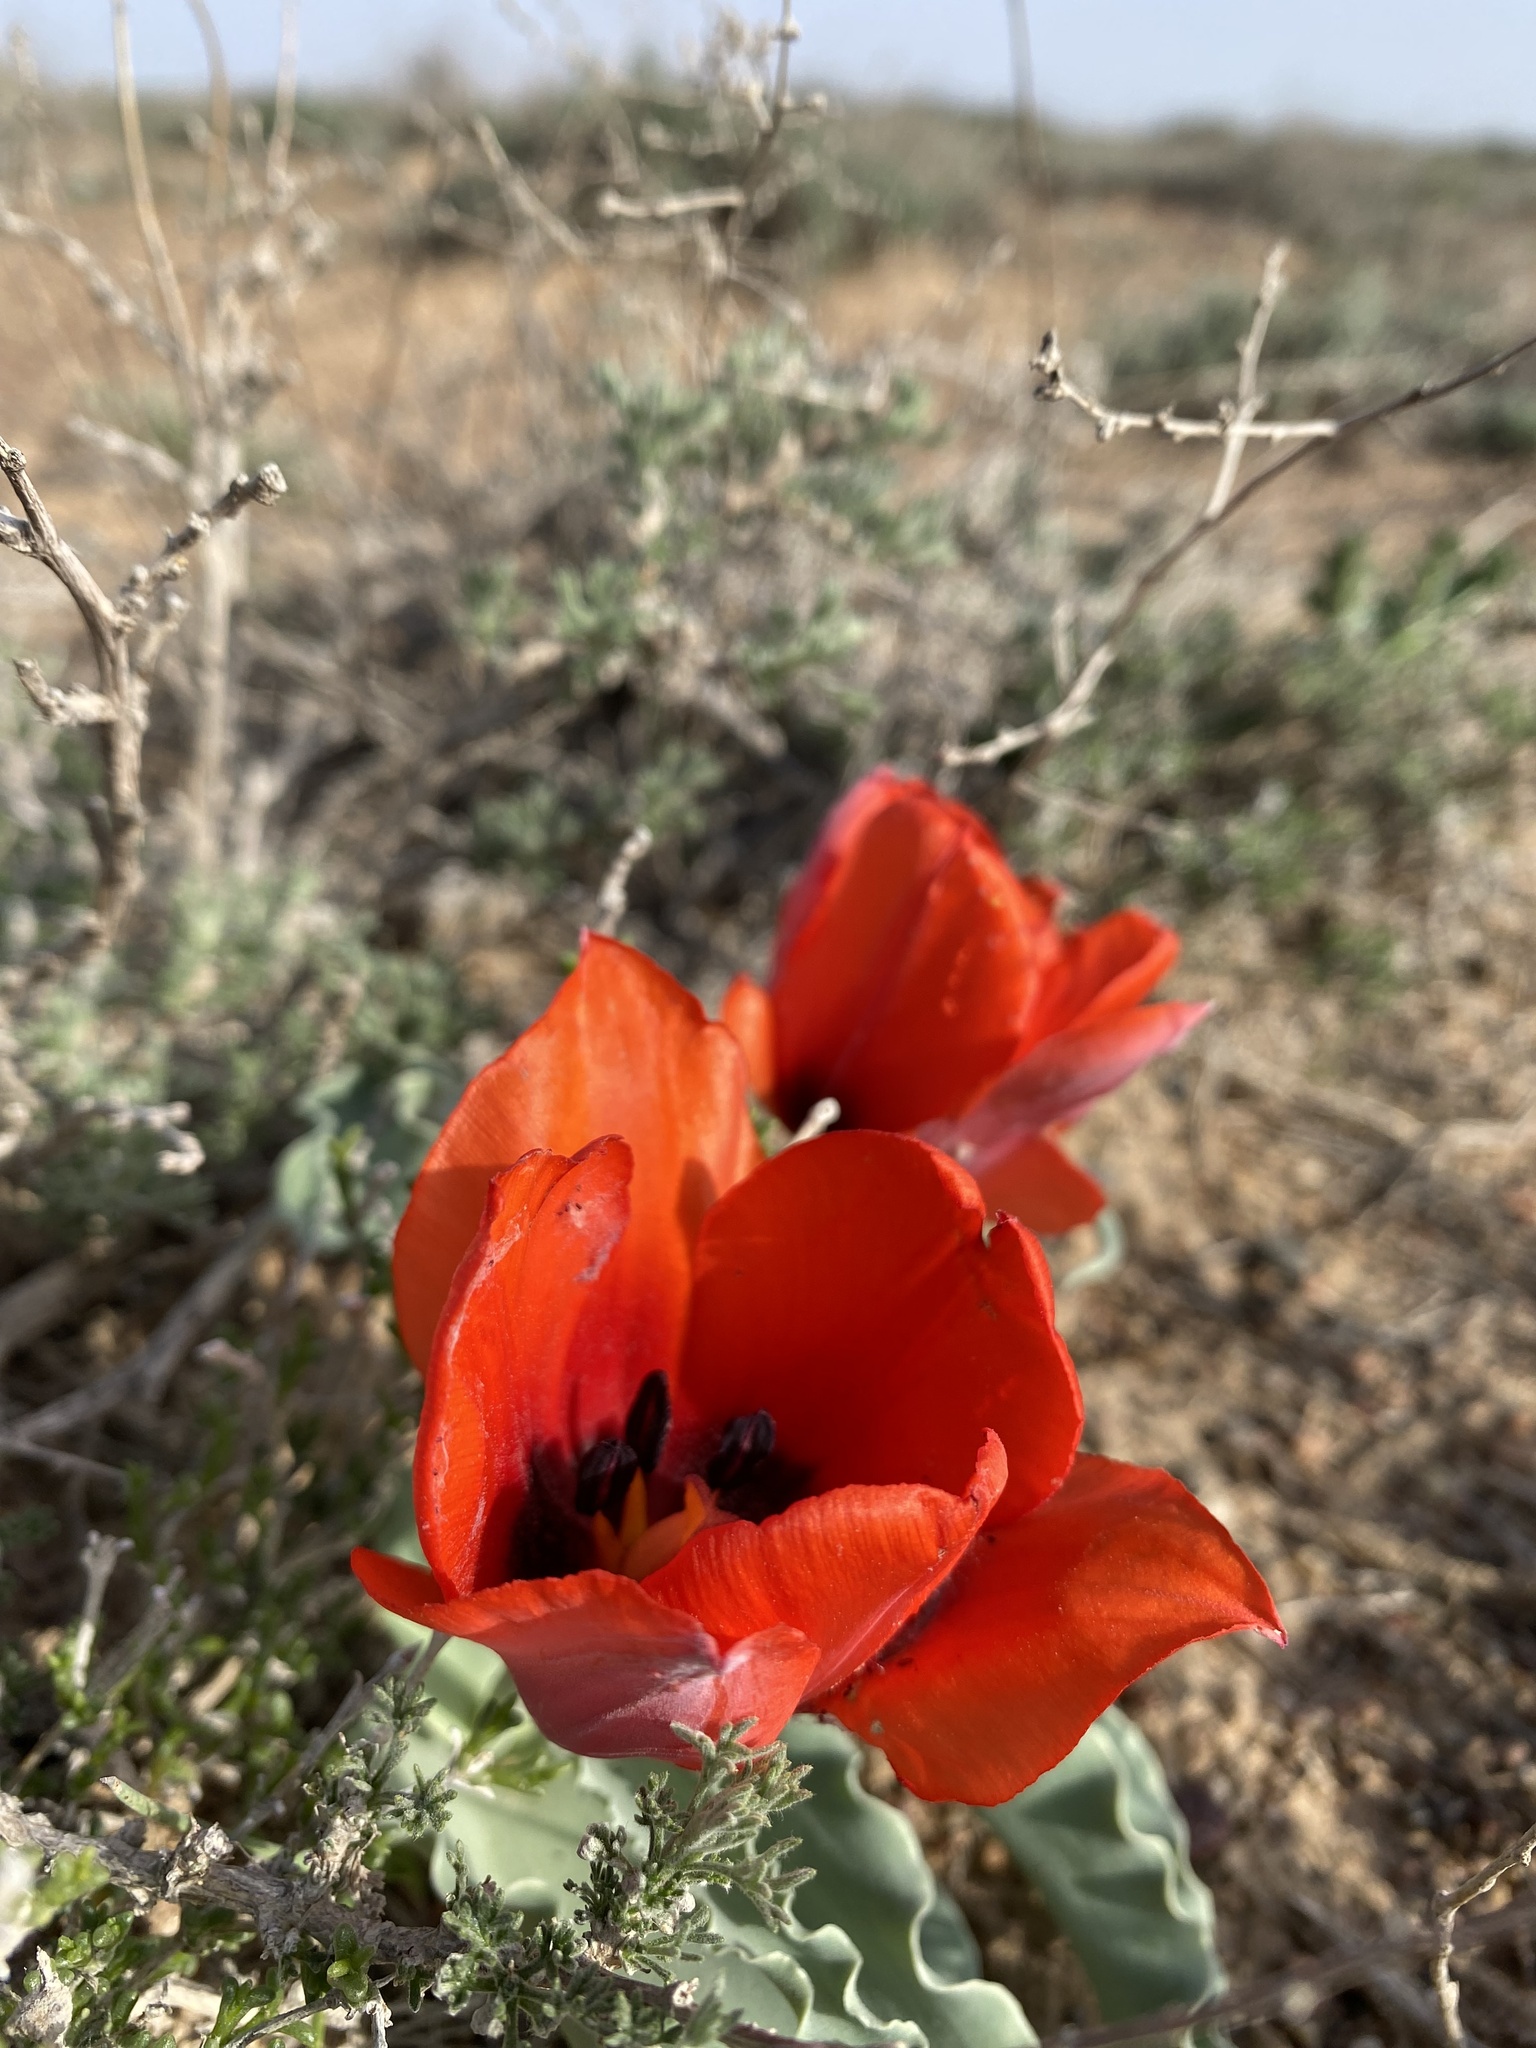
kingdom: Plantae
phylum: Tracheophyta
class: Liliopsida
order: Liliales
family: Liliaceae
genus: Tulipa
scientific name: Tulipa alberti
